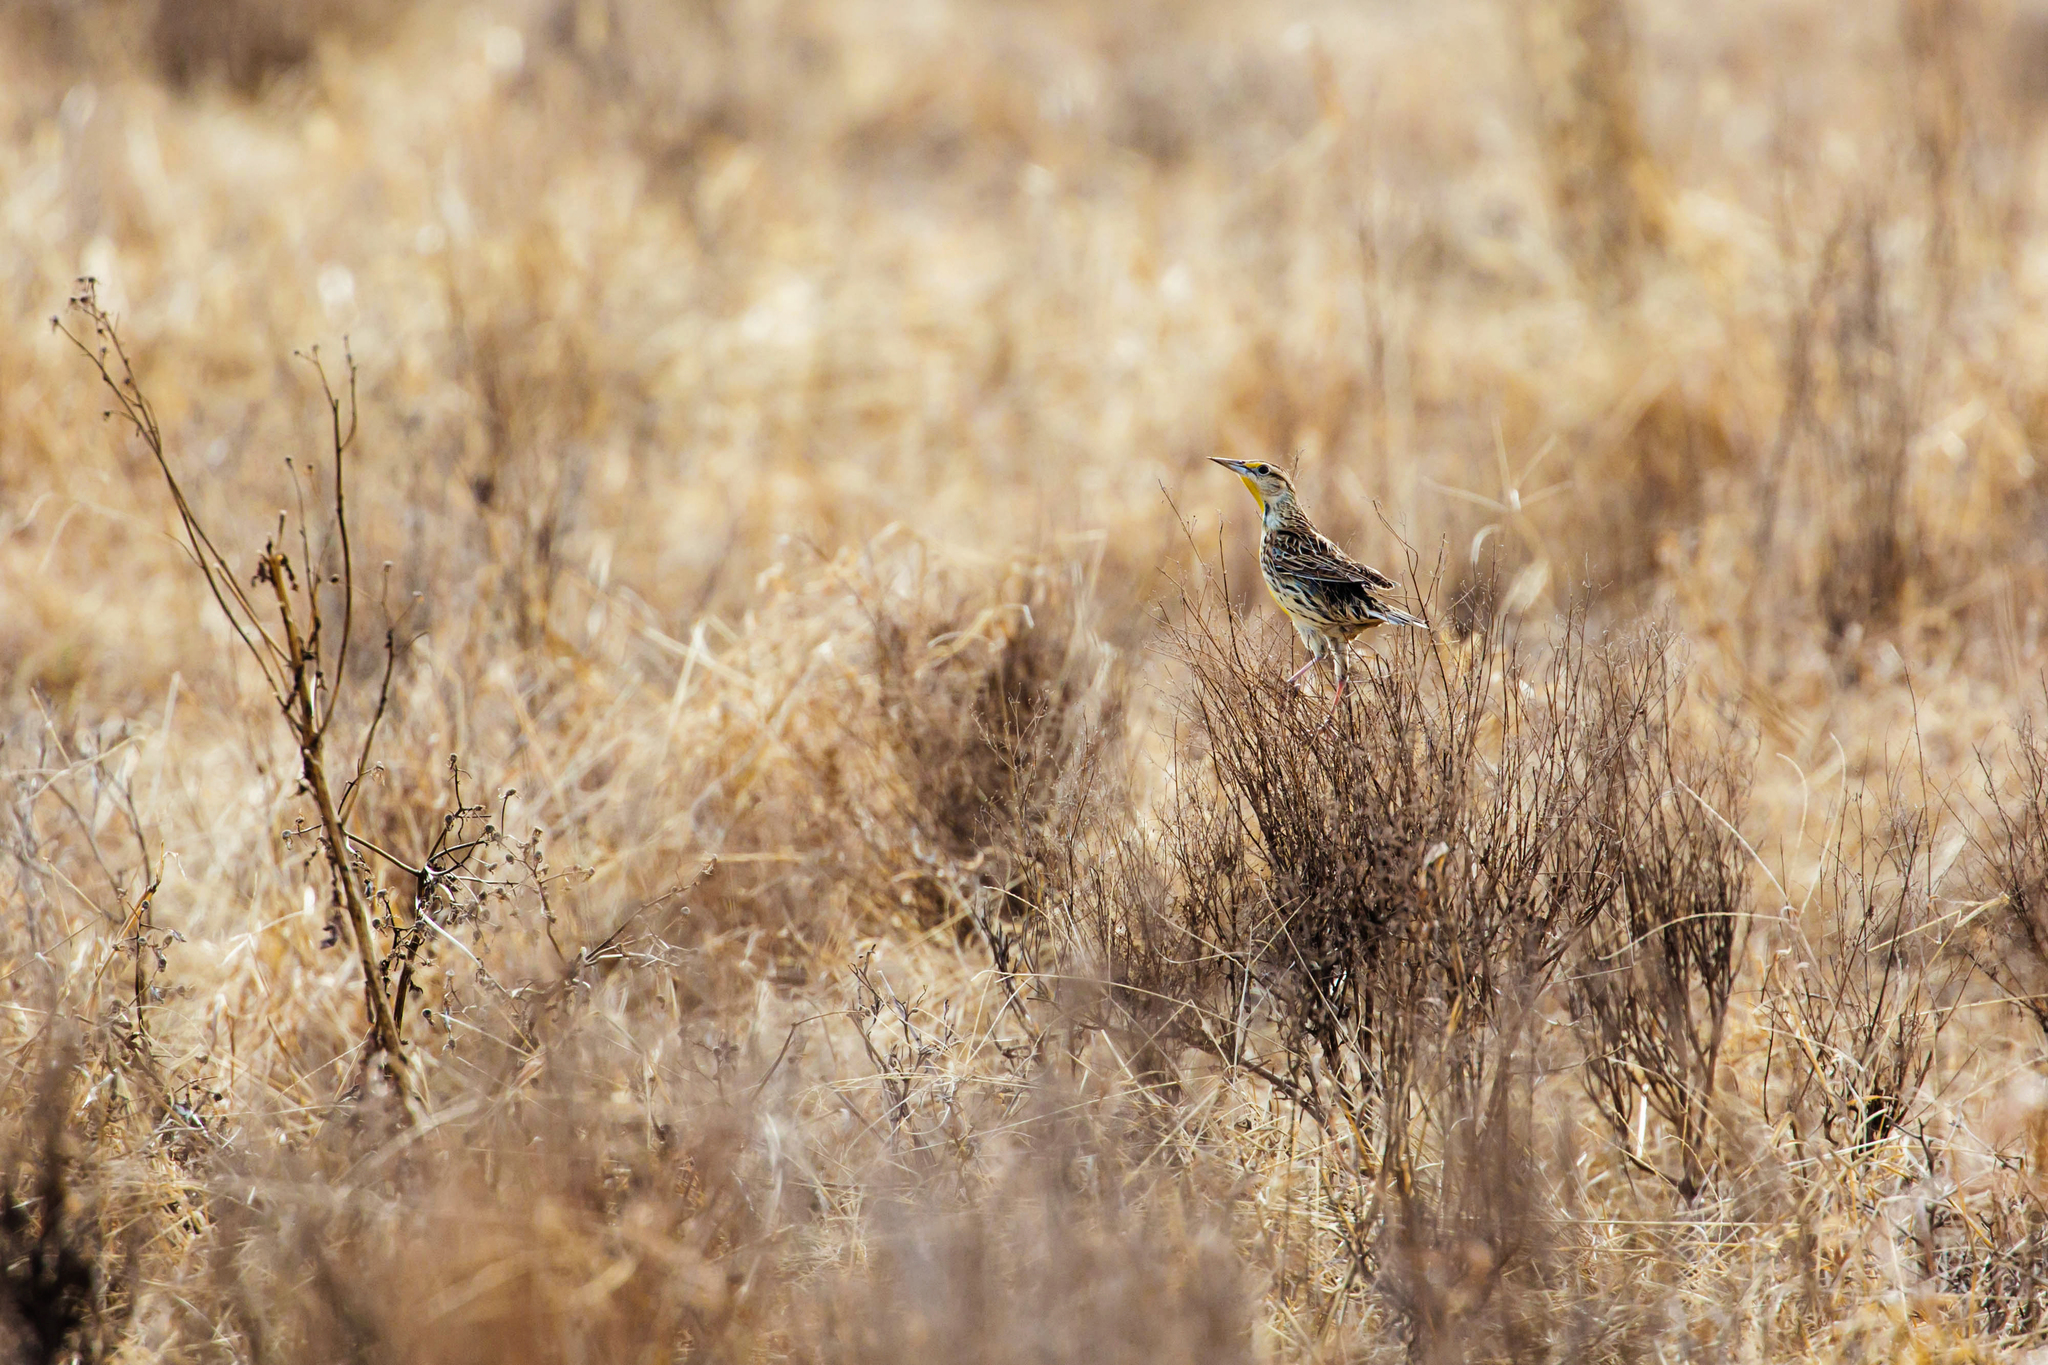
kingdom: Animalia
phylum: Chordata
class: Aves
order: Passeriformes
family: Icteridae
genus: Sturnella
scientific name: Sturnella magna
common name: Eastern meadowlark
